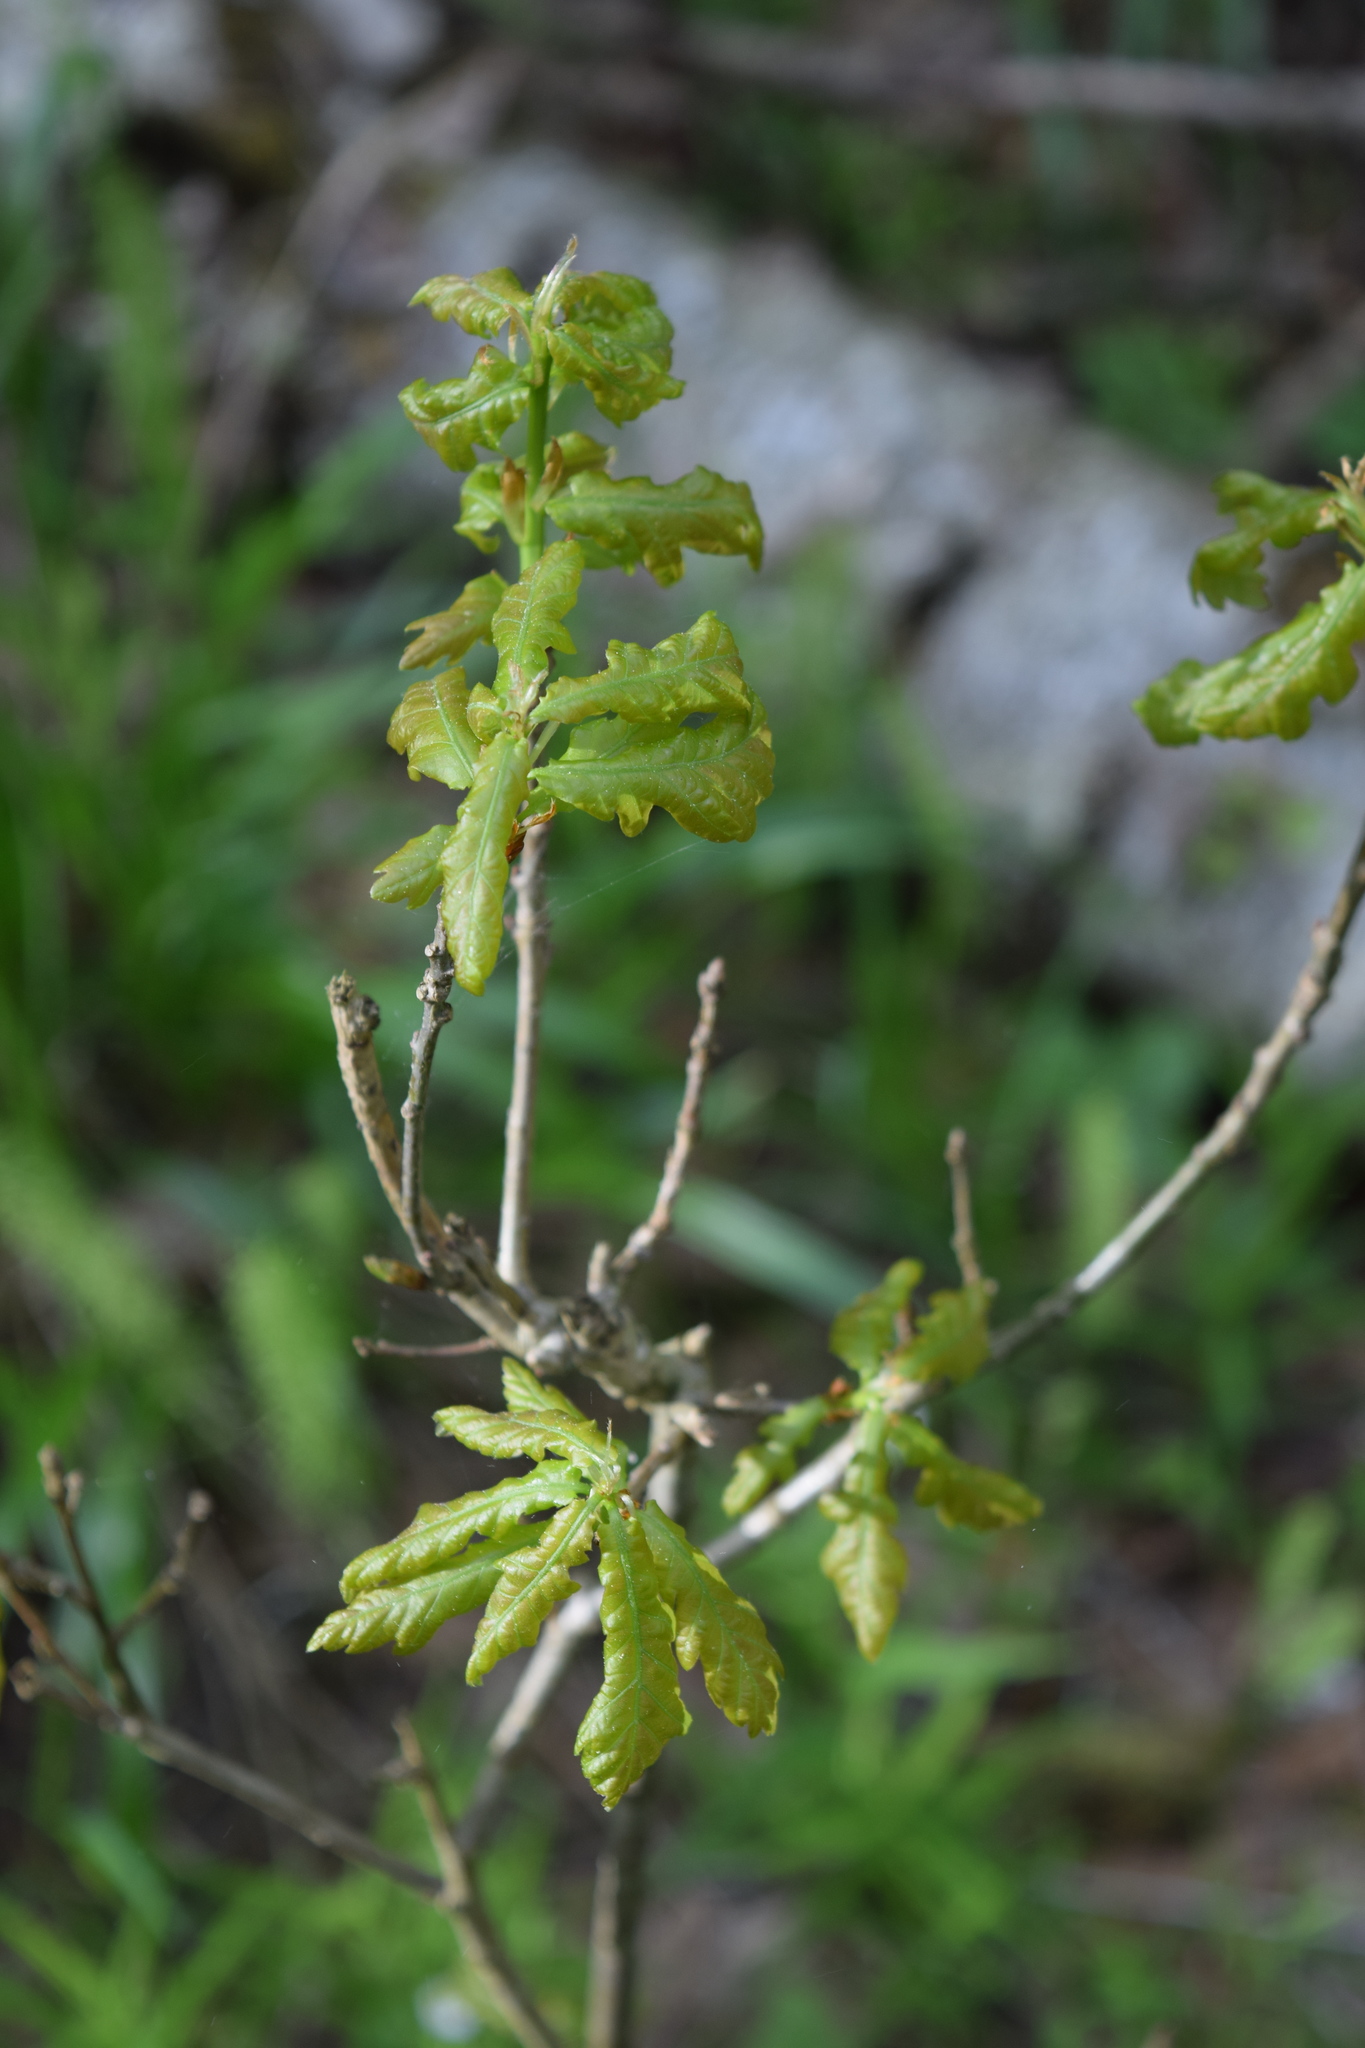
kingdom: Plantae
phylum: Tracheophyta
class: Magnoliopsida
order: Fagales
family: Fagaceae
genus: Quercus
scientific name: Quercus robur
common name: Pedunculate oak
